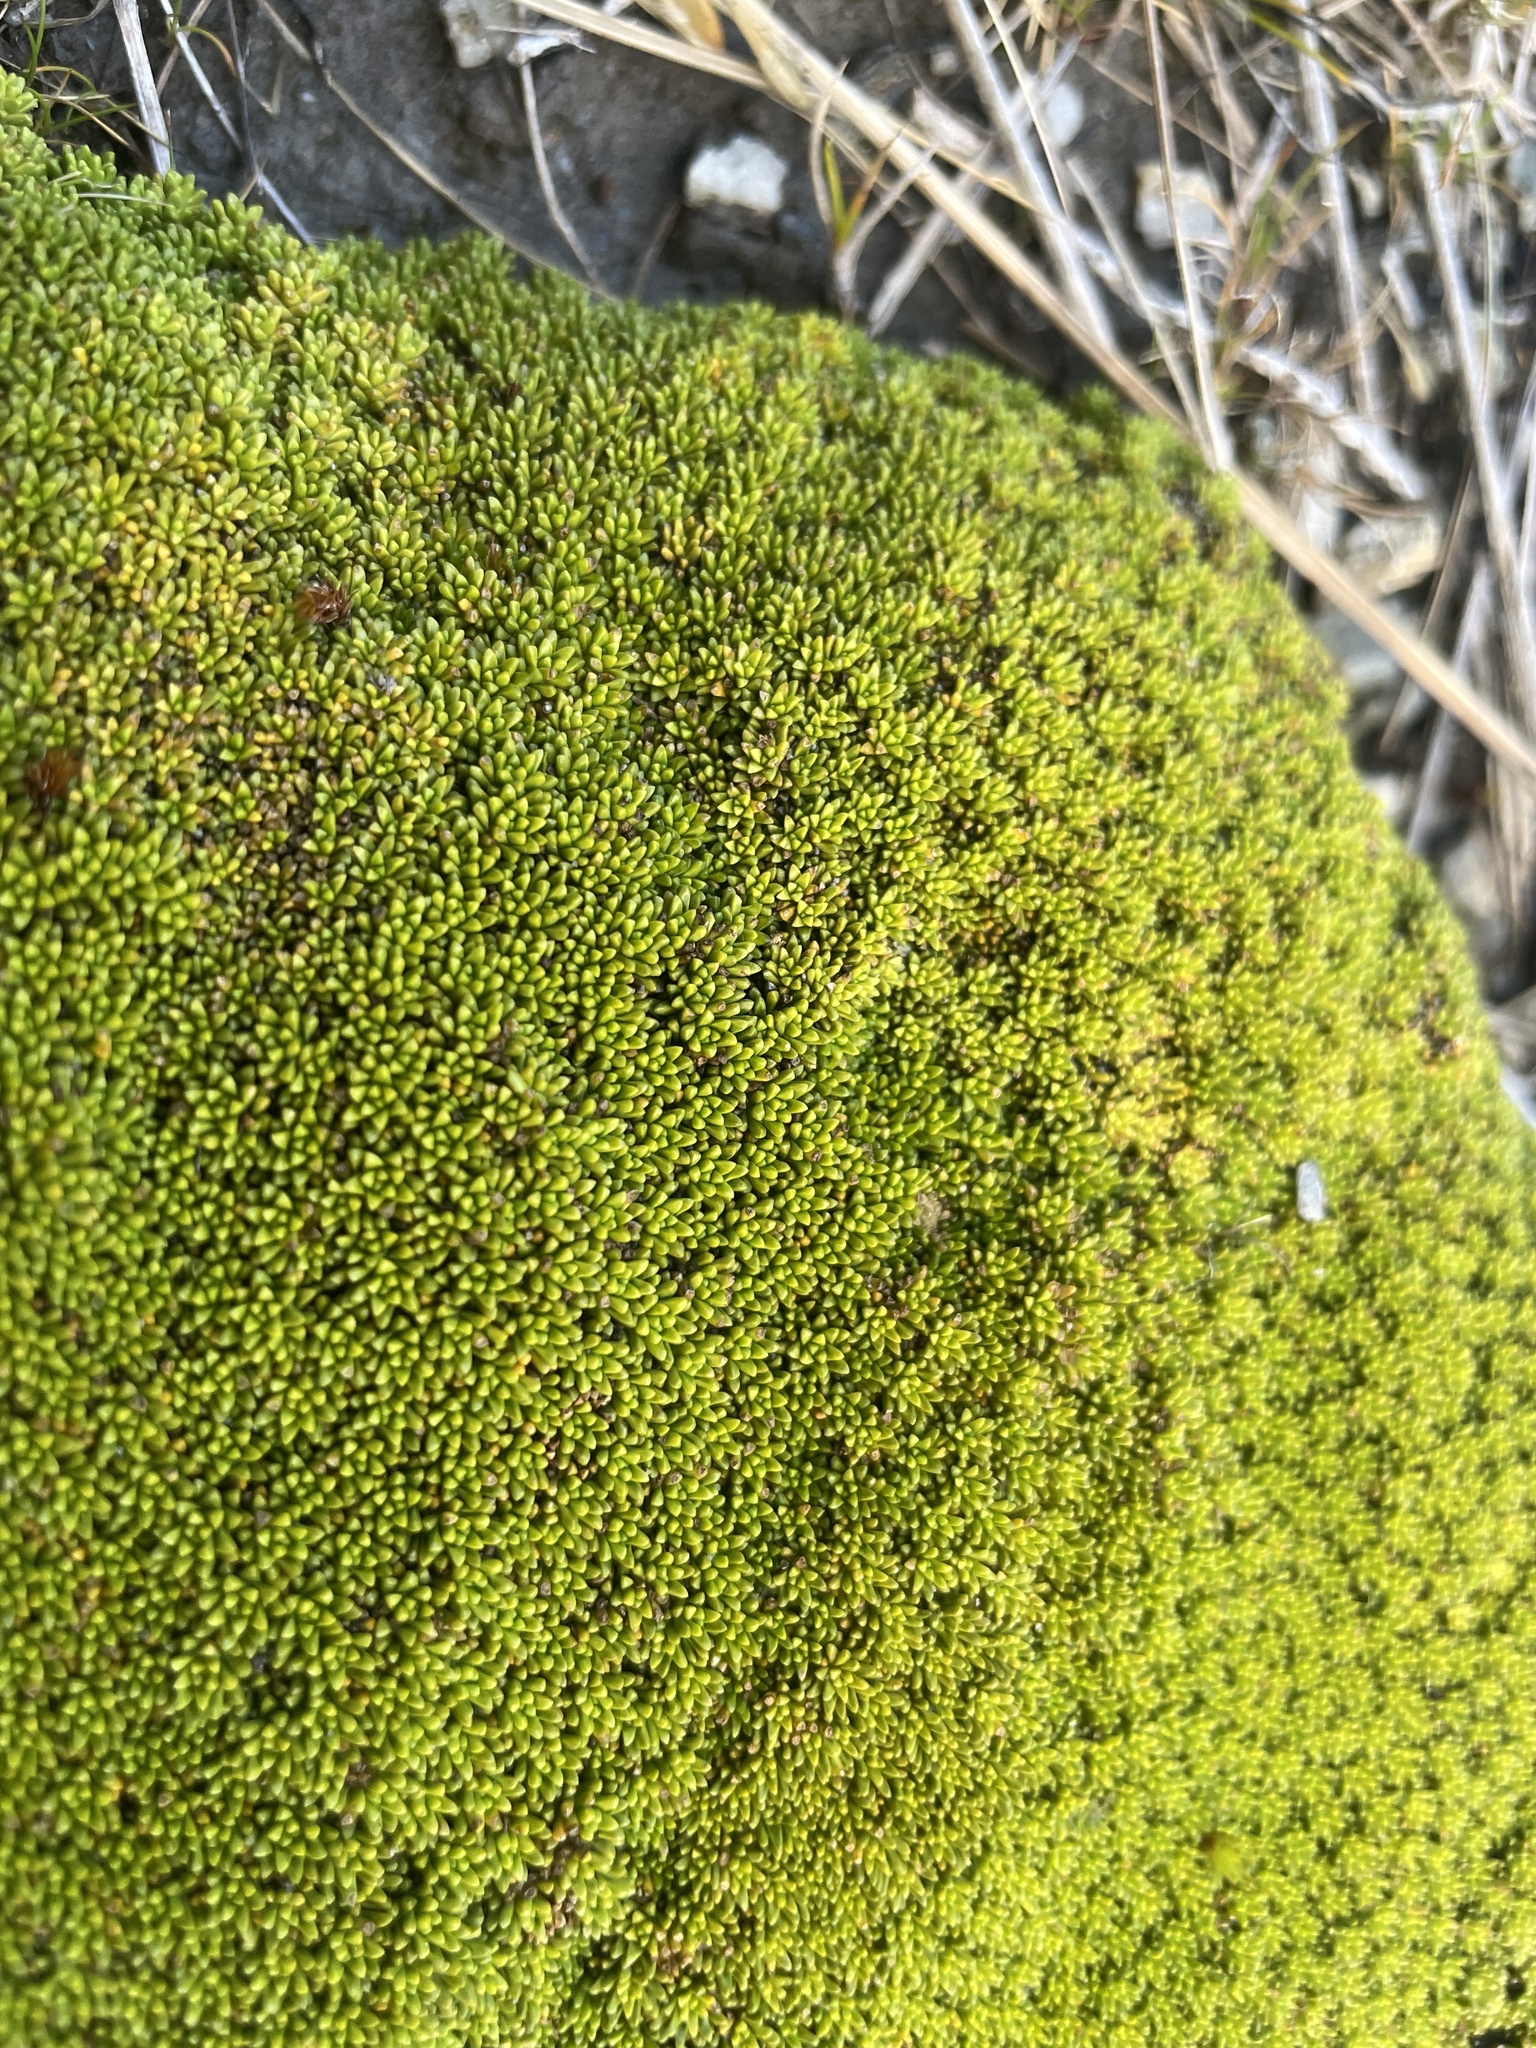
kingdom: Plantae
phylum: Tracheophyta
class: Magnoliopsida
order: Asterales
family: Stylidiaceae
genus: Phyllachne
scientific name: Phyllachne colensoi
